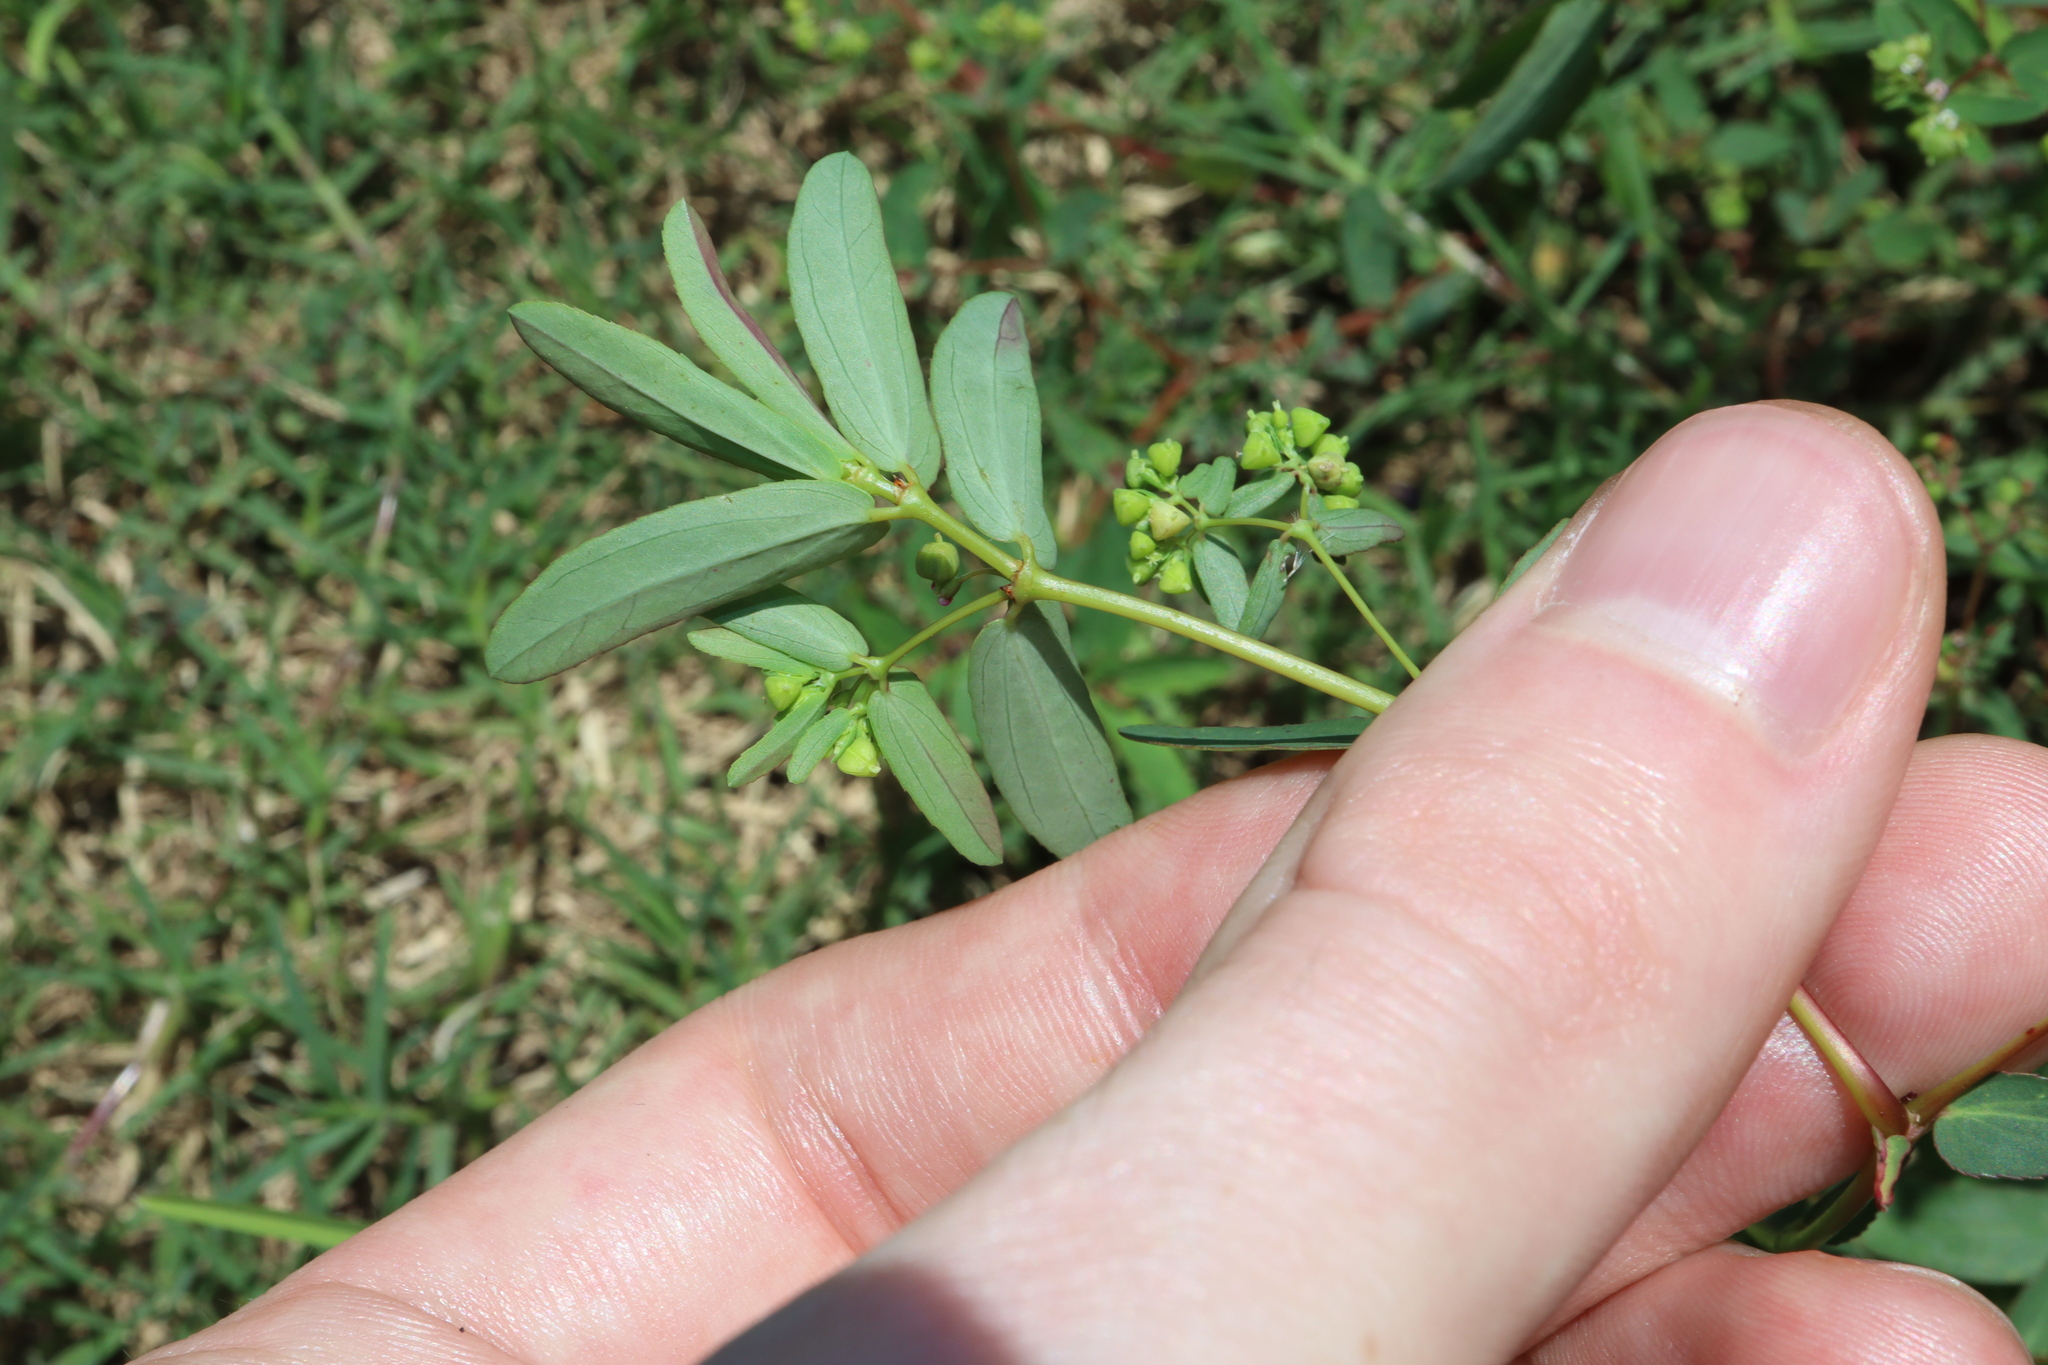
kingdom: Plantae
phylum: Tracheophyta
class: Magnoliopsida
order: Malpighiales
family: Euphorbiaceae
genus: Euphorbia
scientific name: Euphorbia hyssopifolia
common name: Hyssopleaf sandmat
